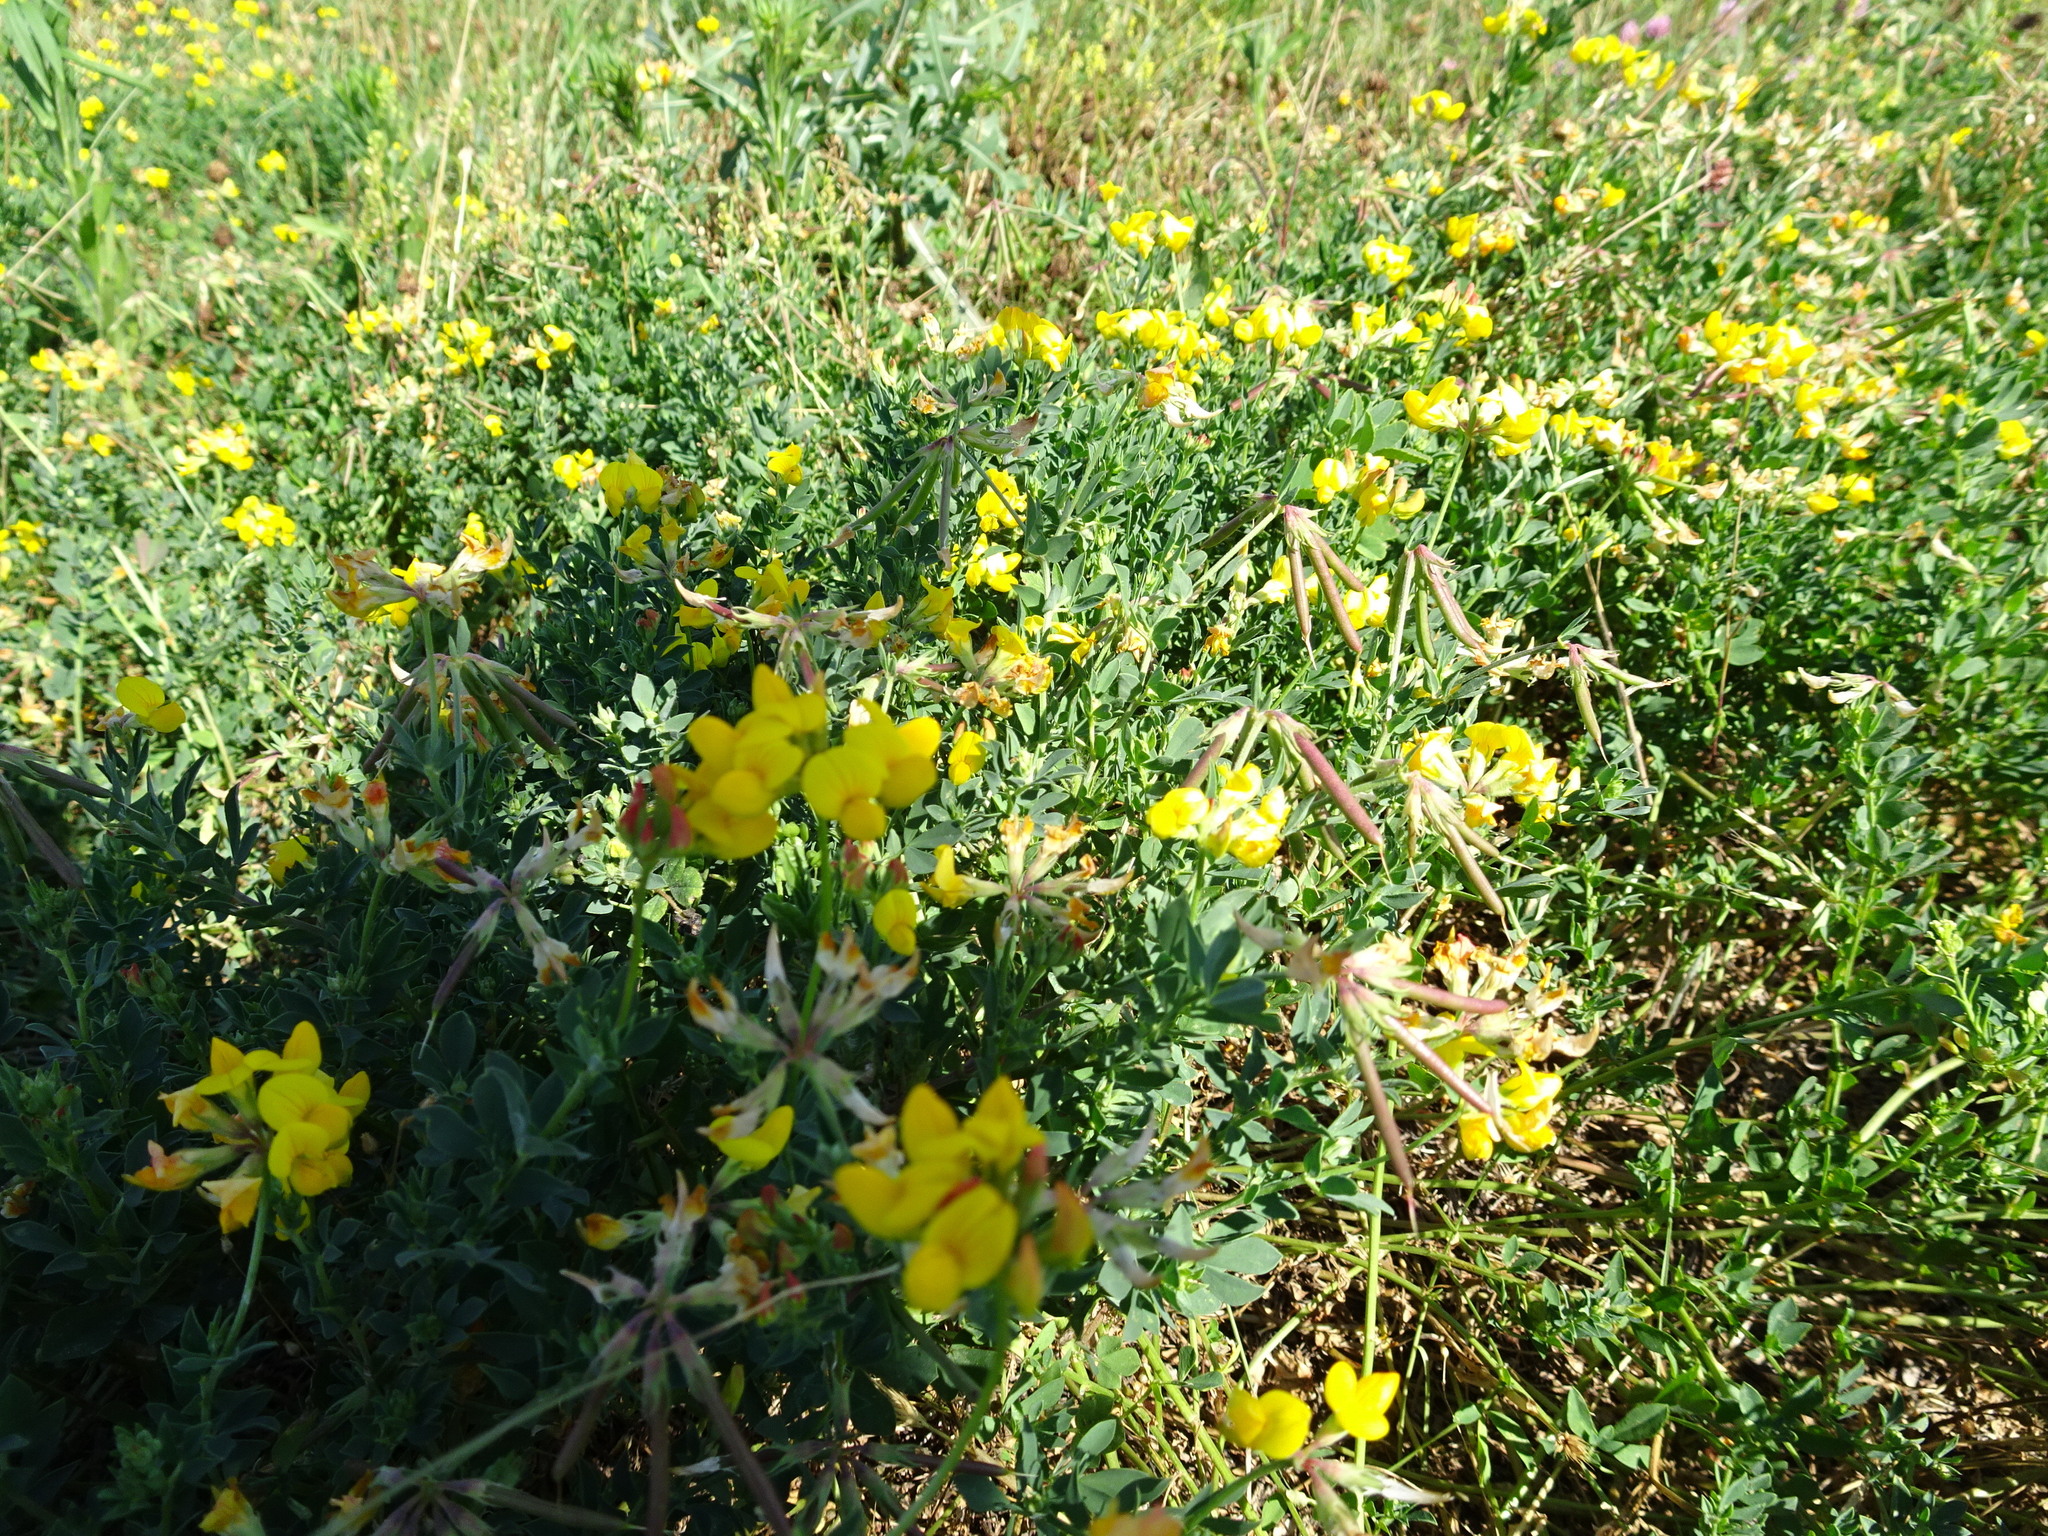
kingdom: Plantae
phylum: Tracheophyta
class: Magnoliopsida
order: Fabales
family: Fabaceae
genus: Lotus
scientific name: Lotus corniculatus
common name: Common bird's-foot-trefoil
